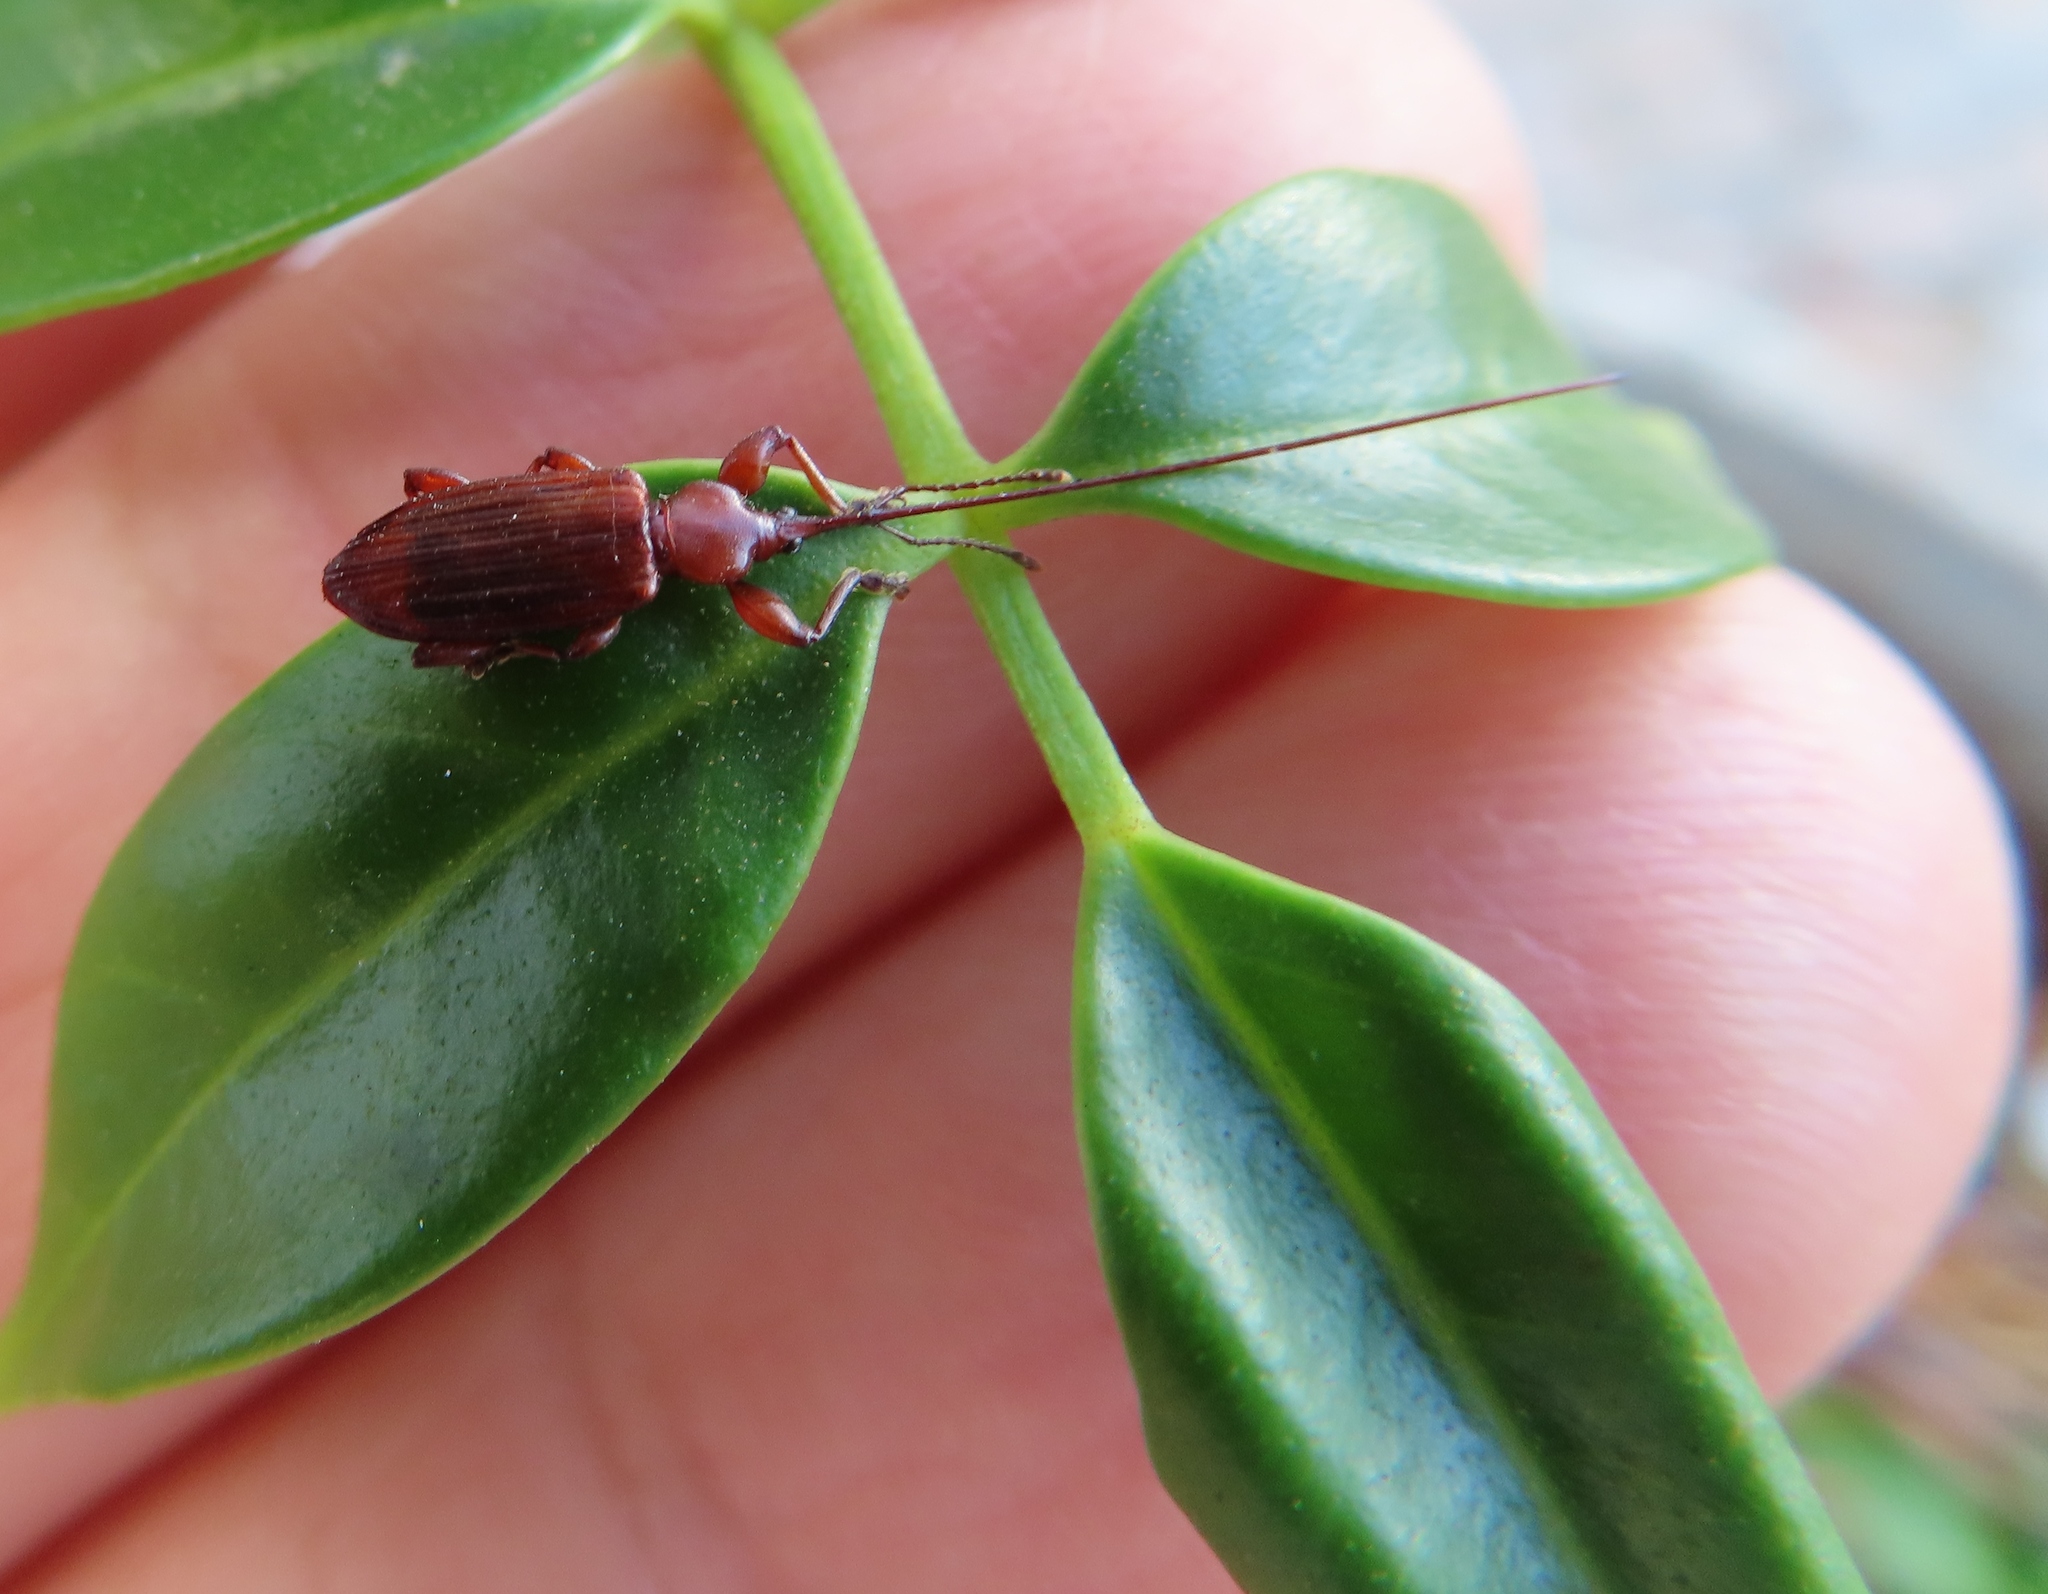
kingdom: Animalia
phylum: Arthropoda
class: Insecta
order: Coleoptera
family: Brentidae
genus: Antliarhinus
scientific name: Antliarhinus Antliarhis zamiae
